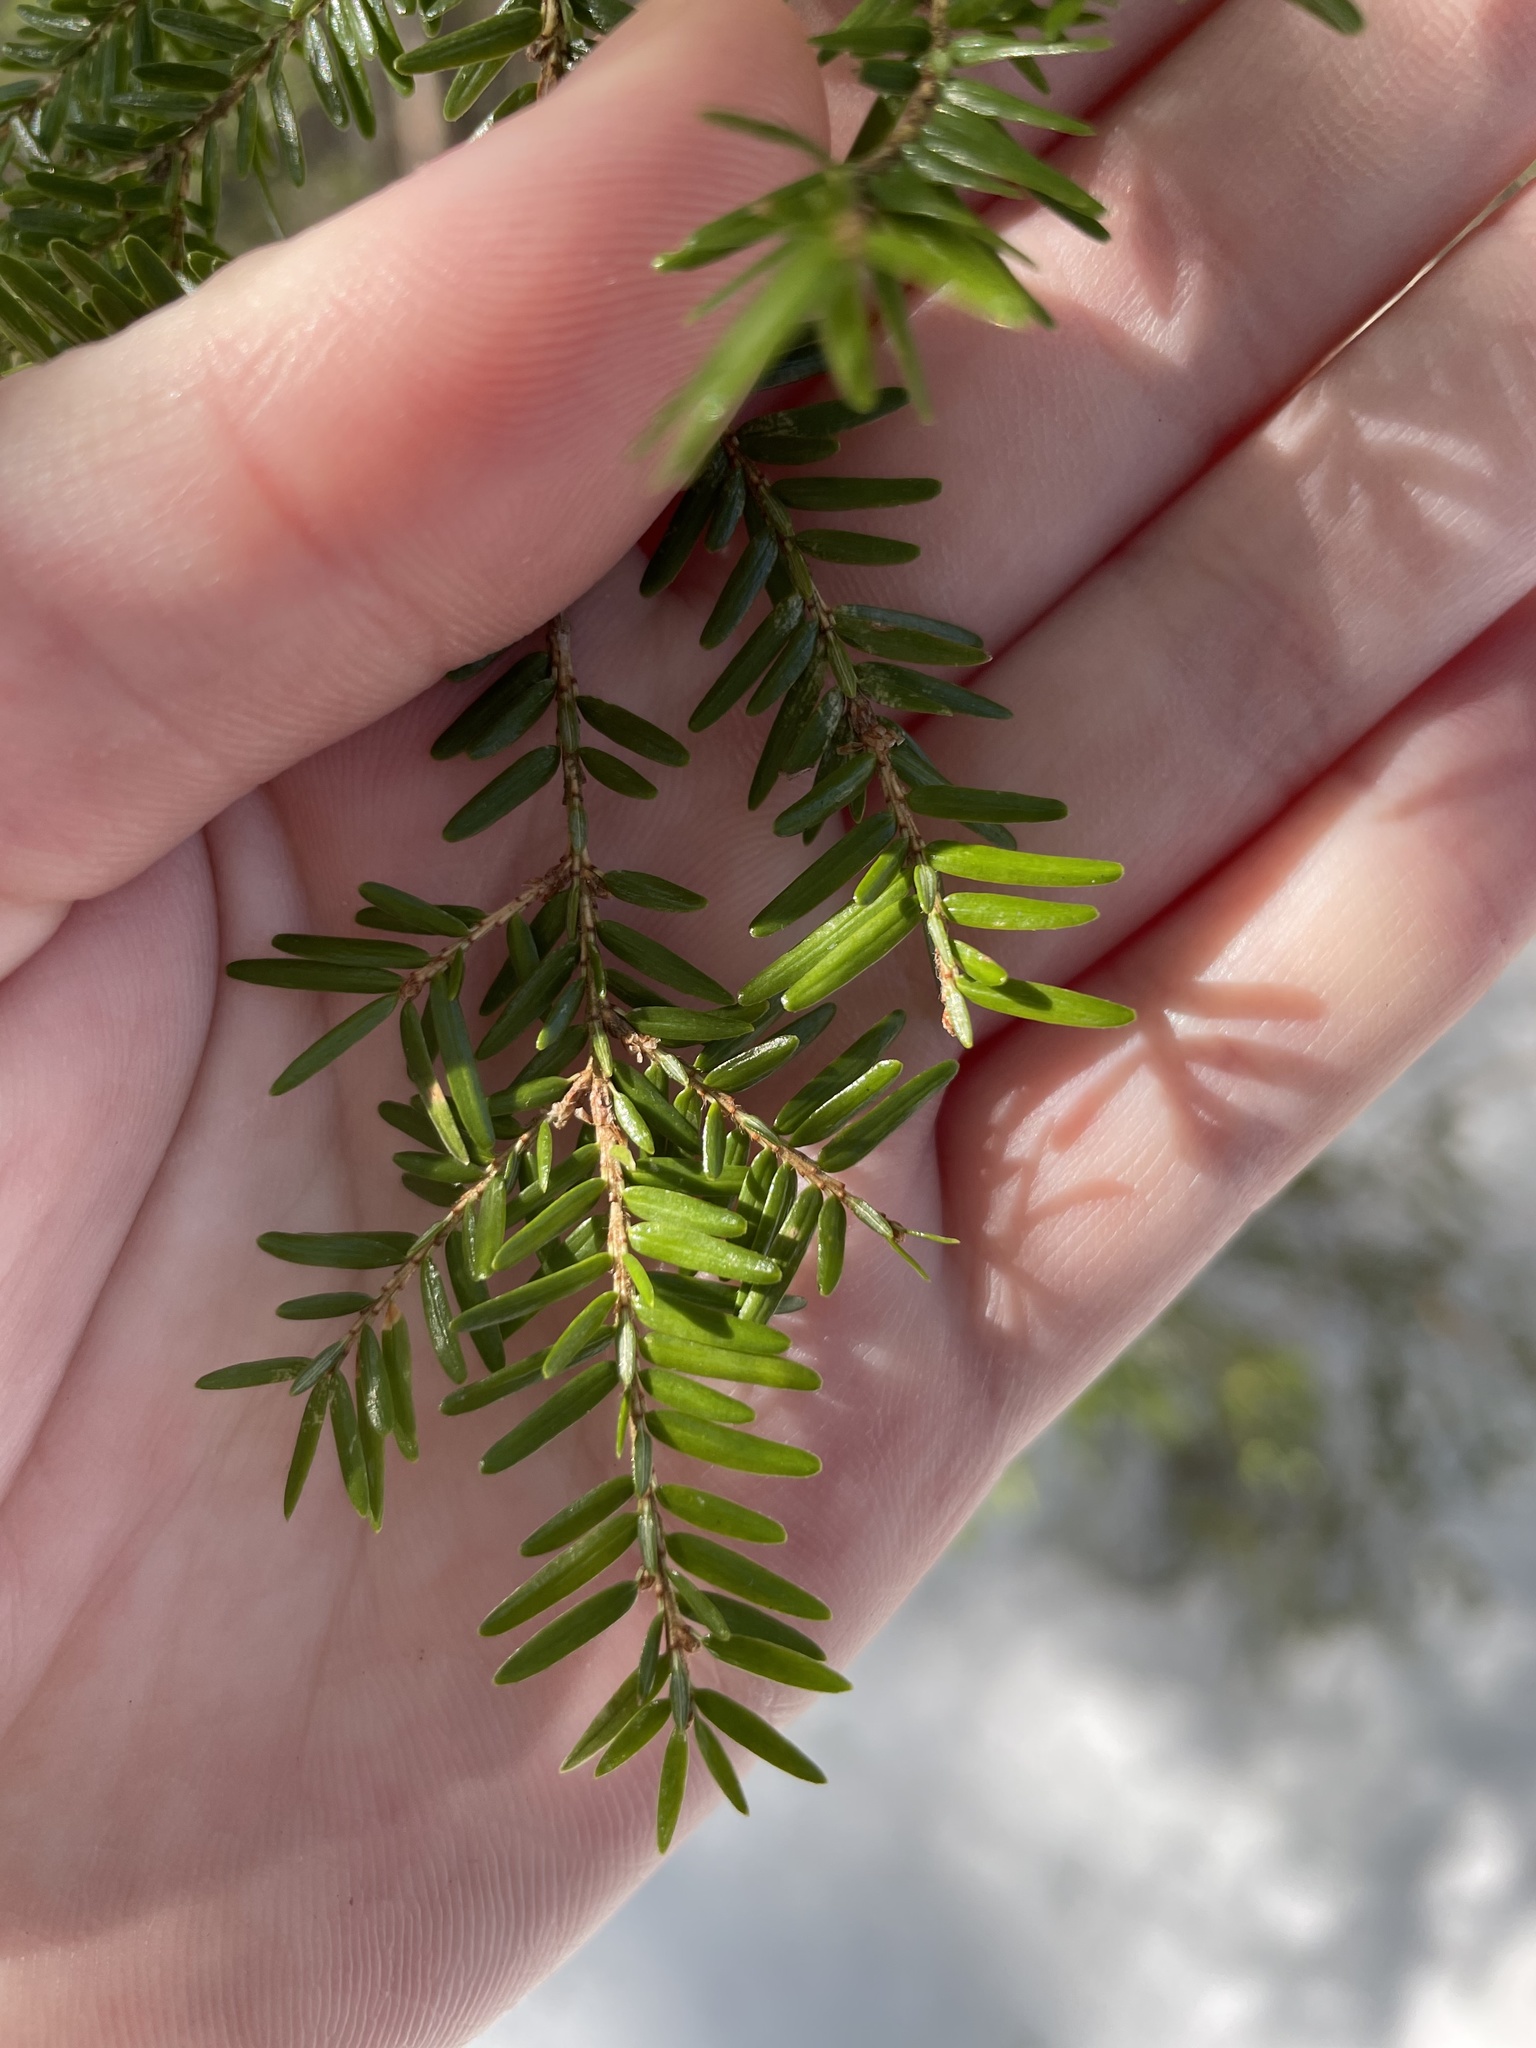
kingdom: Plantae
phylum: Tracheophyta
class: Pinopsida
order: Pinales
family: Pinaceae
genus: Tsuga
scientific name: Tsuga canadensis
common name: Eastern hemlock
